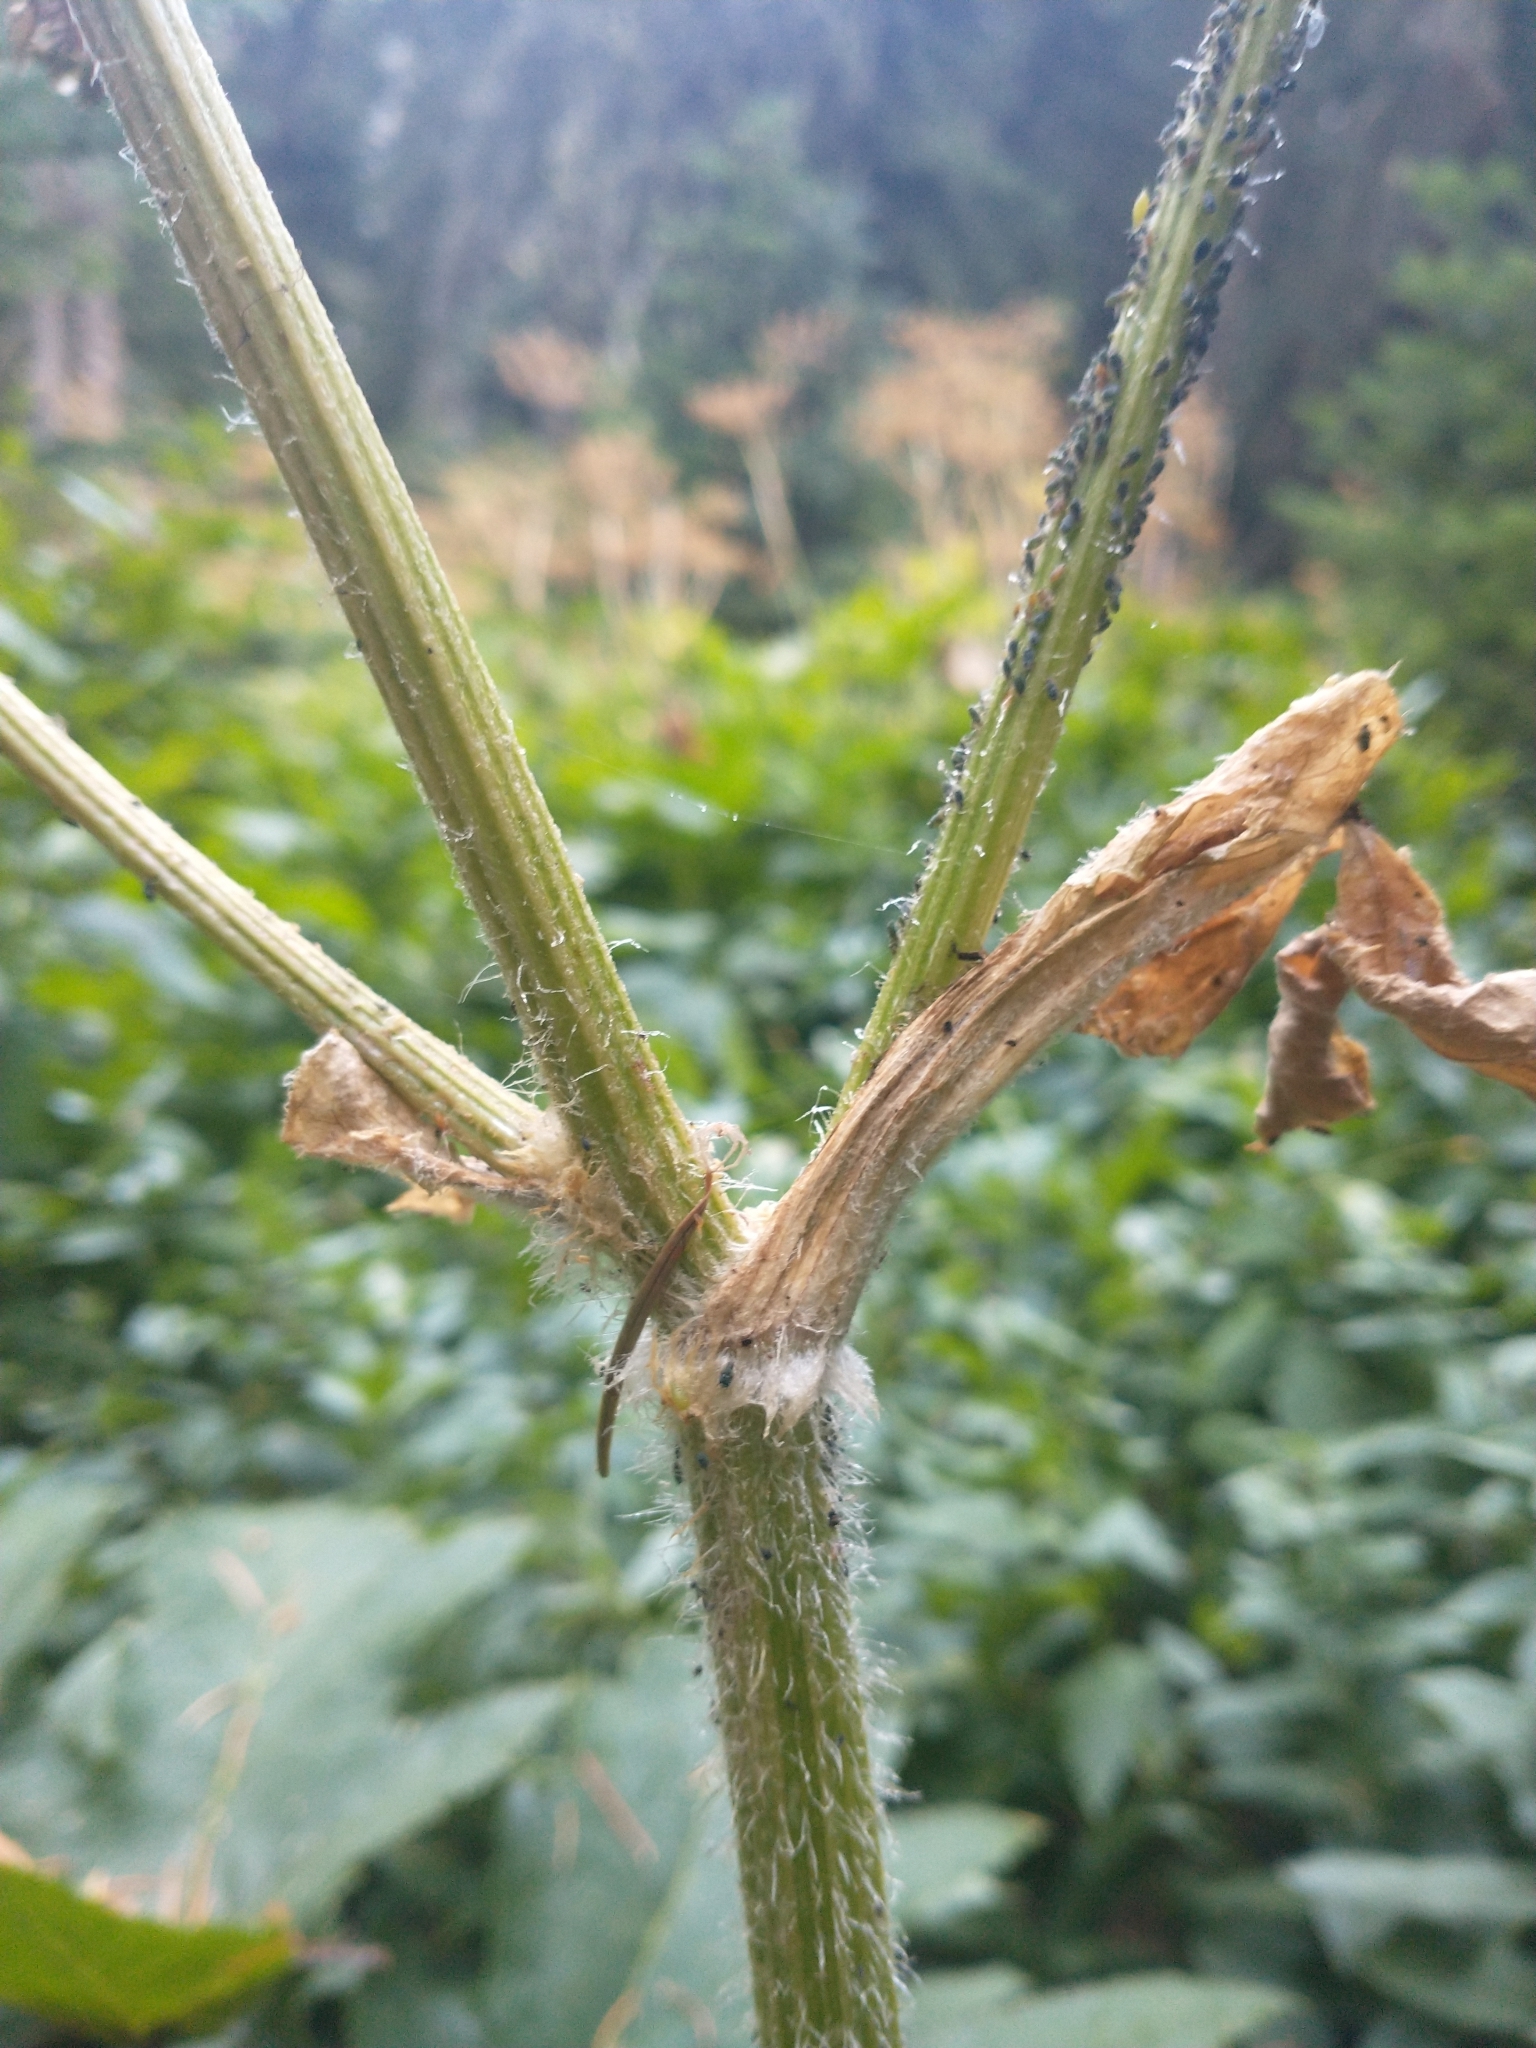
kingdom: Plantae
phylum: Tracheophyta
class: Magnoliopsida
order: Apiales
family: Apiaceae
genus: Heracleum
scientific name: Heracleum maximum
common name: American cow parsnip
